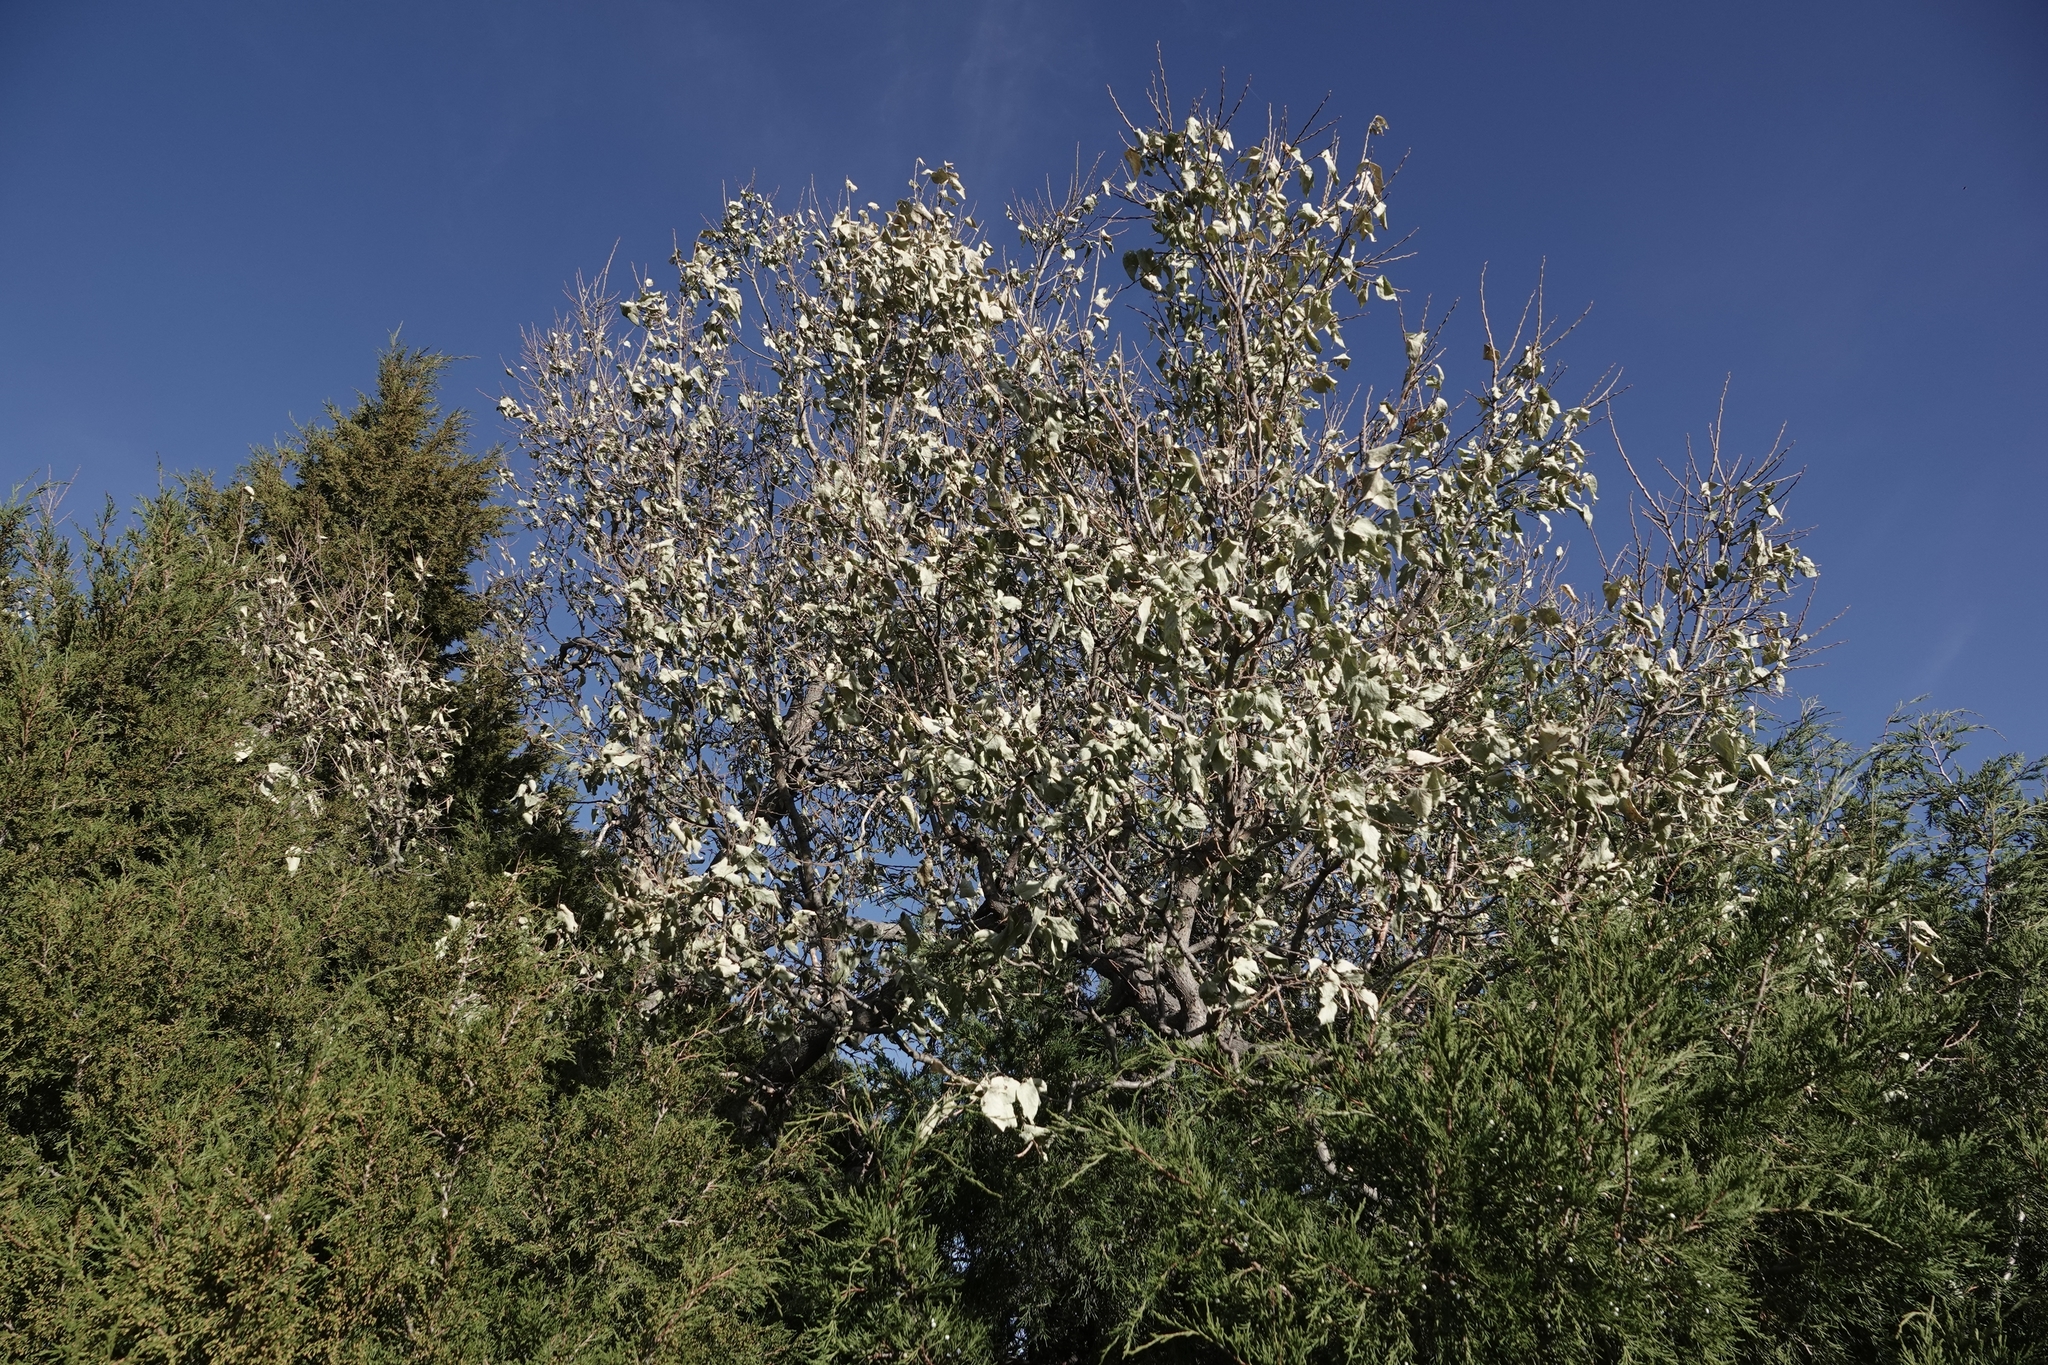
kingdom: Plantae
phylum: Tracheophyta
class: Magnoliopsida
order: Rosales
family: Cannabaceae
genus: Celtis
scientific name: Celtis occidentalis
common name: Common hackberry
